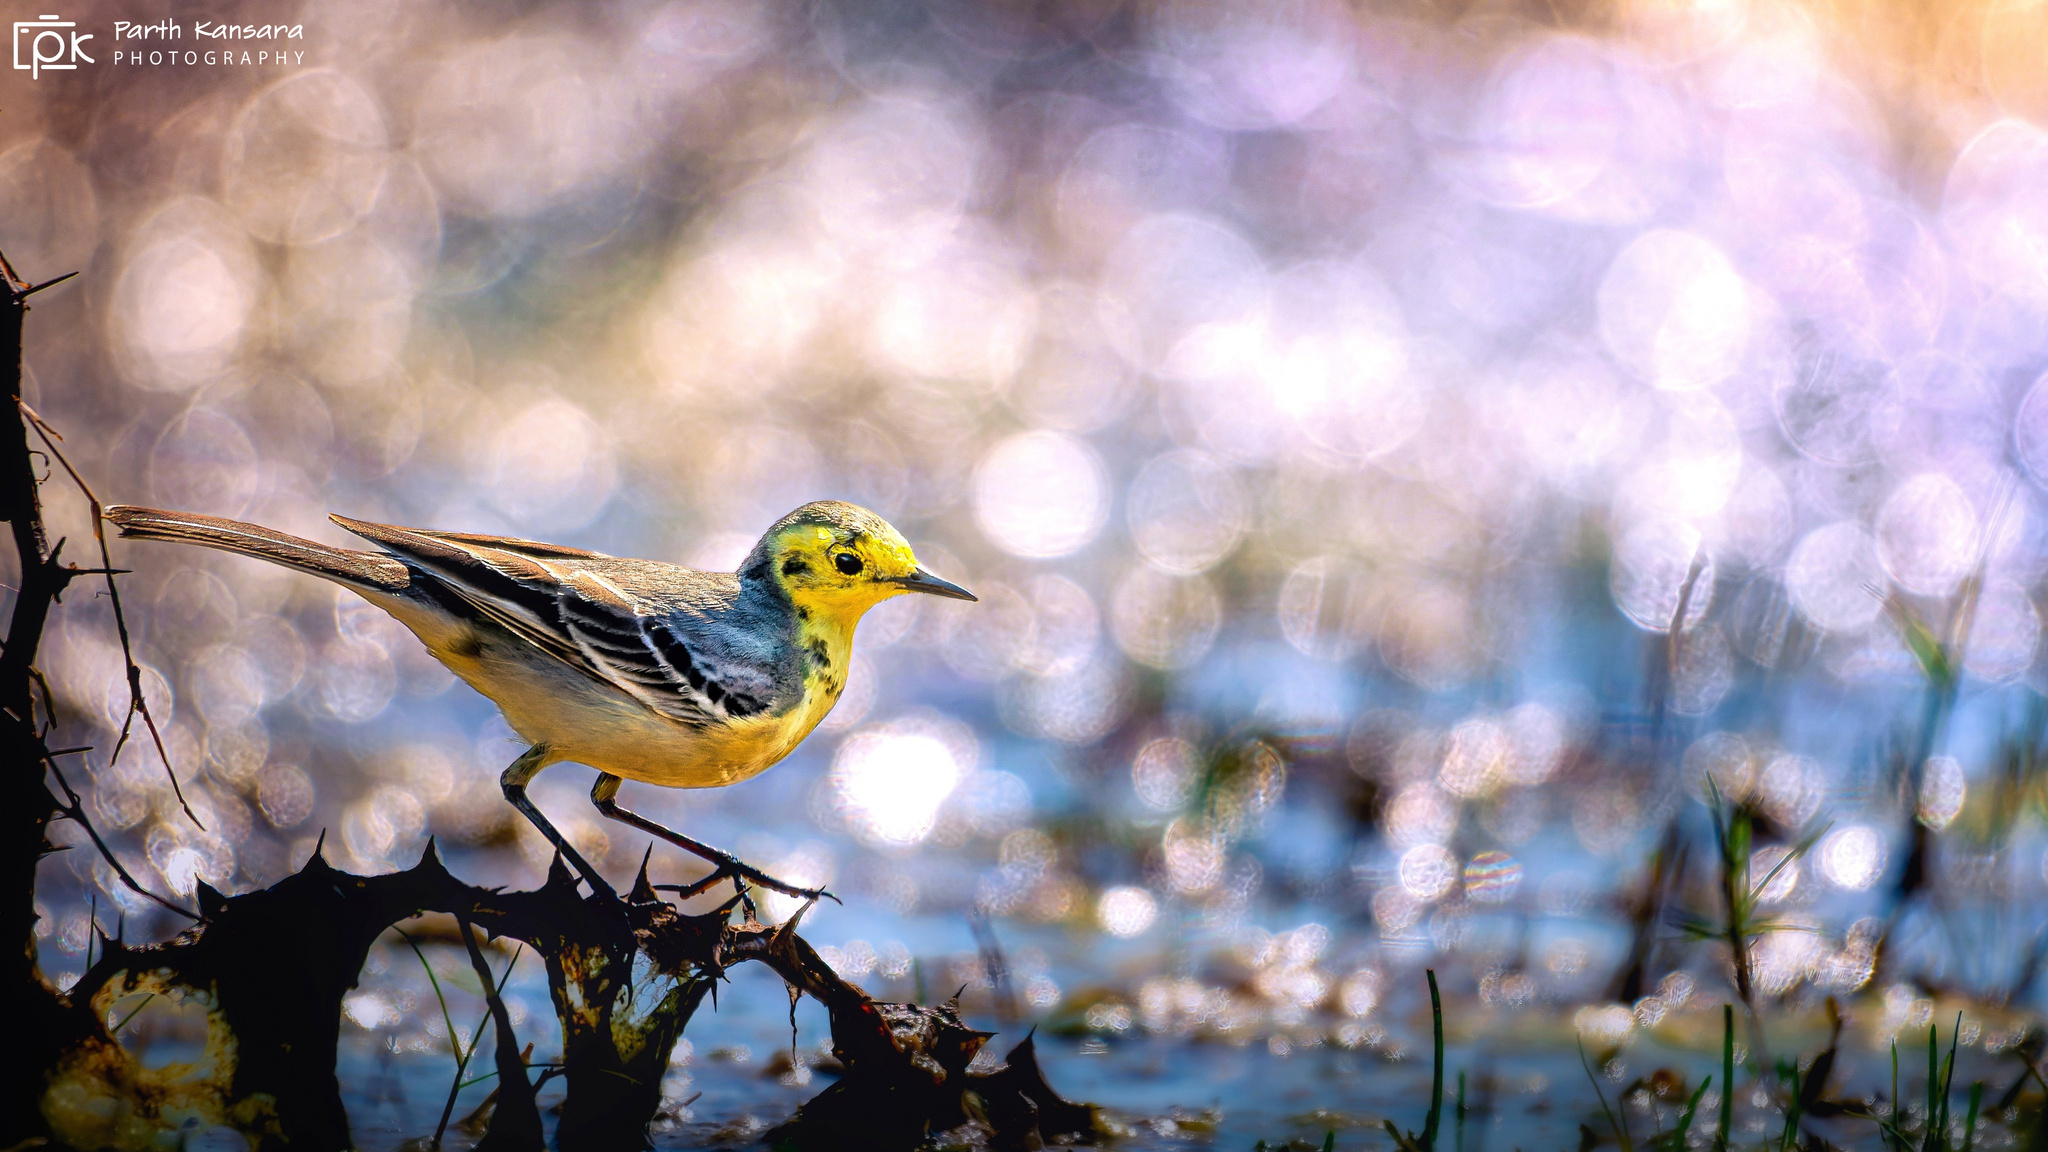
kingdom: Animalia
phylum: Chordata
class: Aves
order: Passeriformes
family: Motacillidae
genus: Motacilla
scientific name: Motacilla citreola
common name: Citrine wagtail
